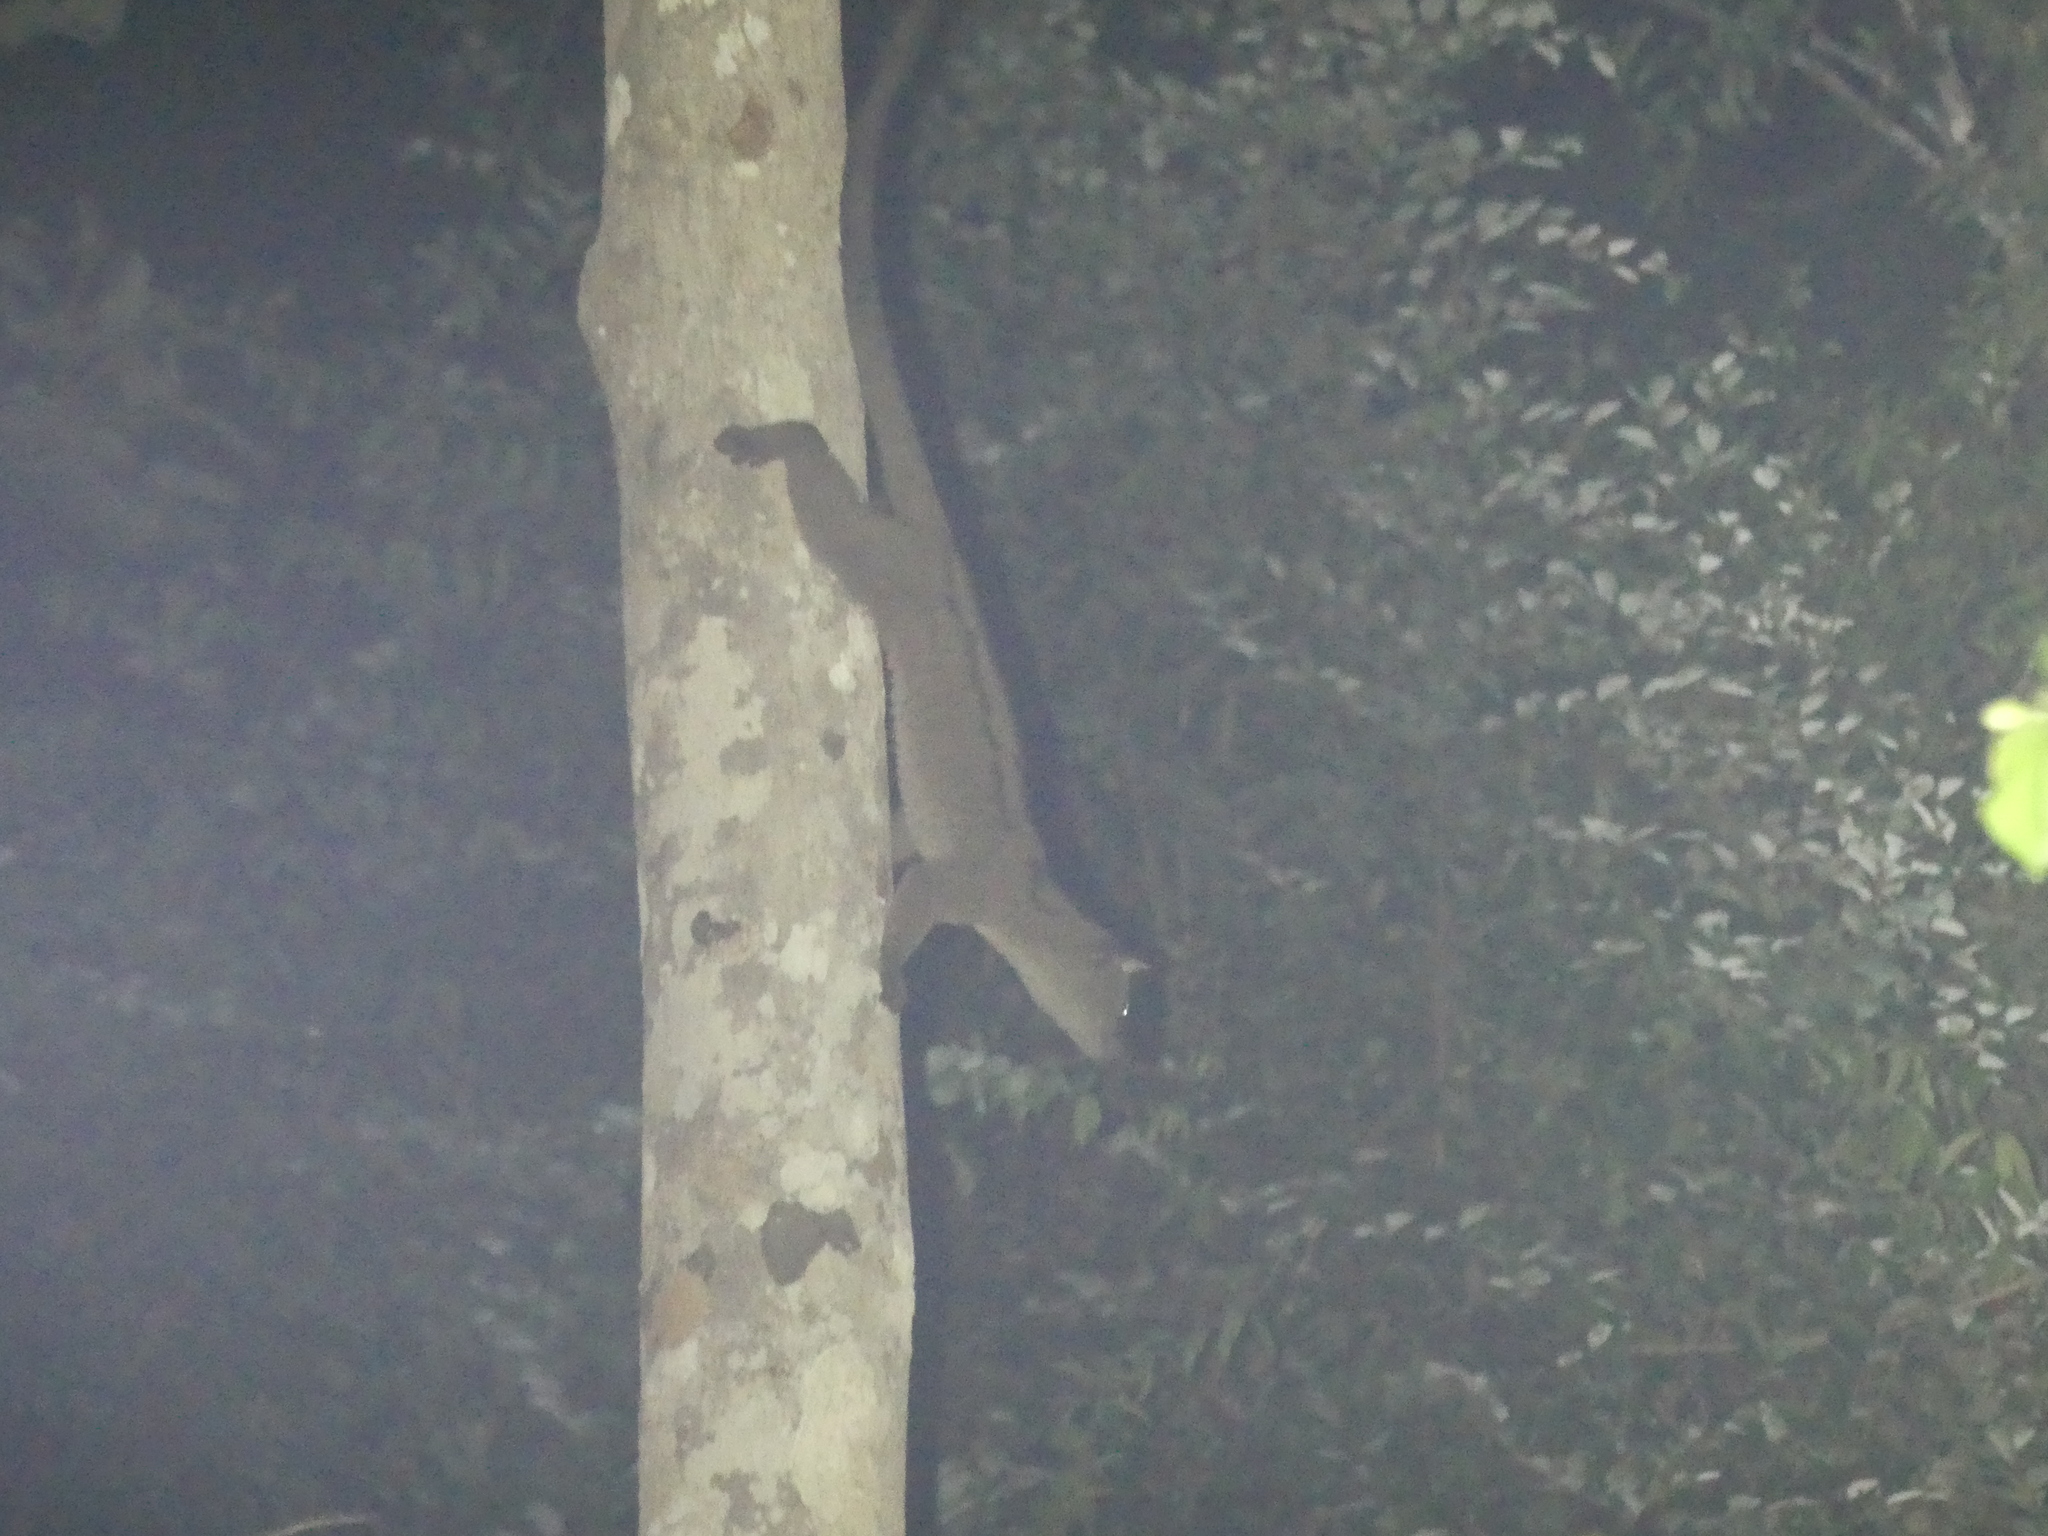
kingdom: Animalia
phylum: Chordata
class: Mammalia
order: Carnivora
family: Viverridae
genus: Arctogalidia
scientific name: Arctogalidia trivirgata
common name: Small-toothed palm civet
